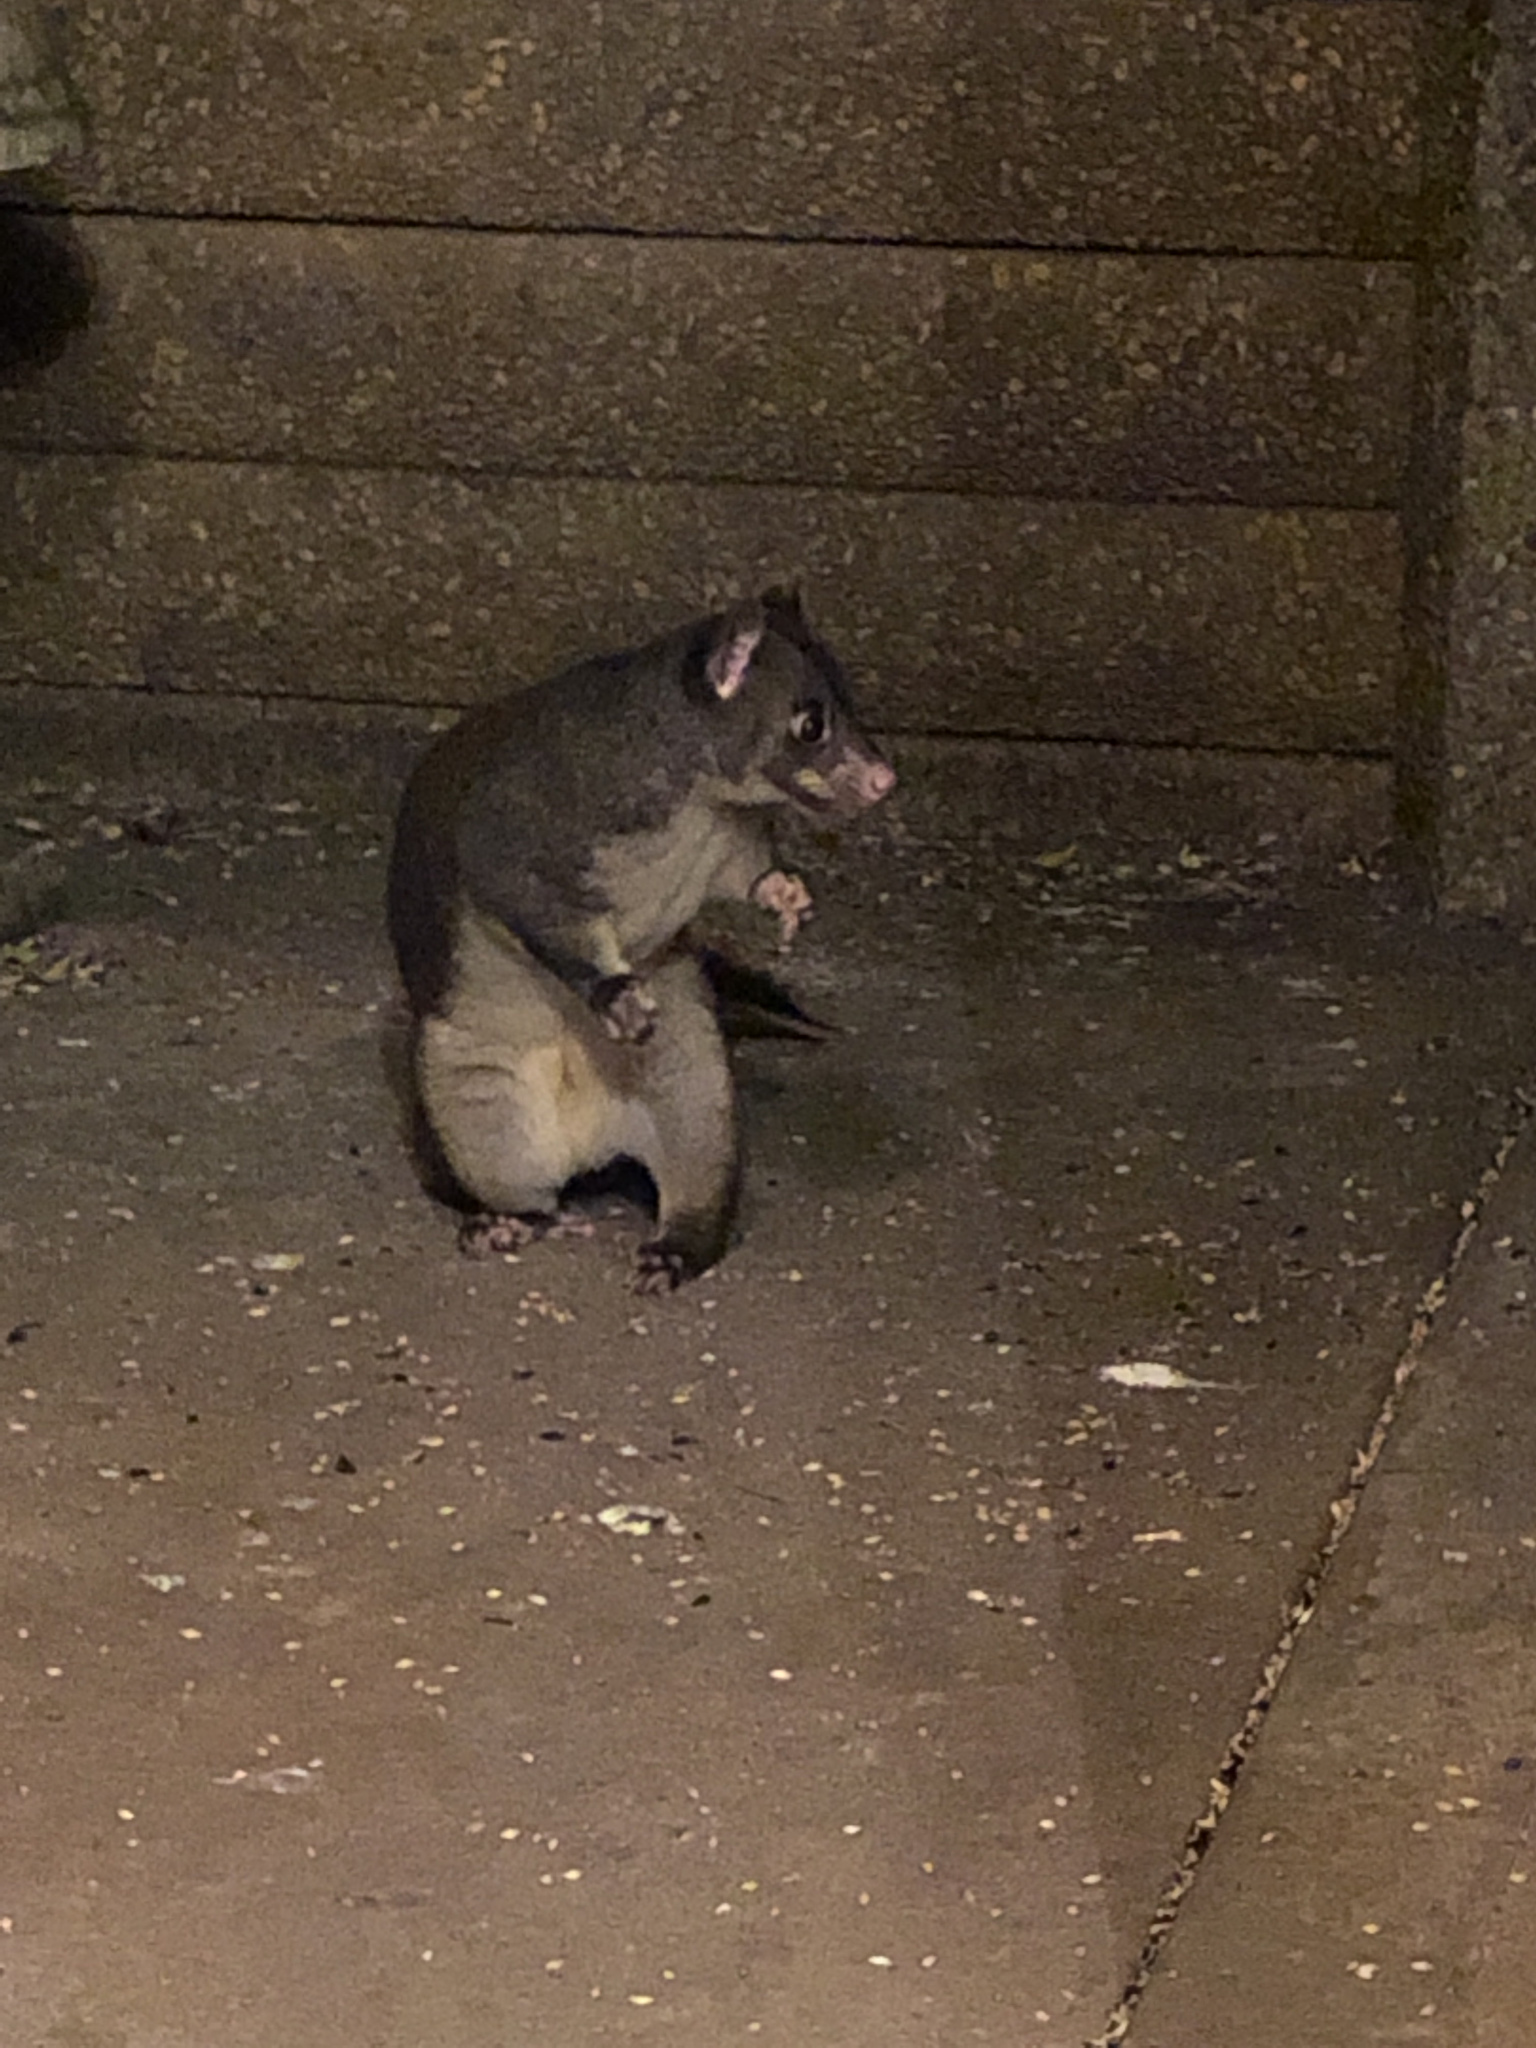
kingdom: Animalia
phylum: Chordata
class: Mammalia
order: Diprotodontia
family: Phalangeridae
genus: Trichosurus
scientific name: Trichosurus caninus
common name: Short-eared possum
